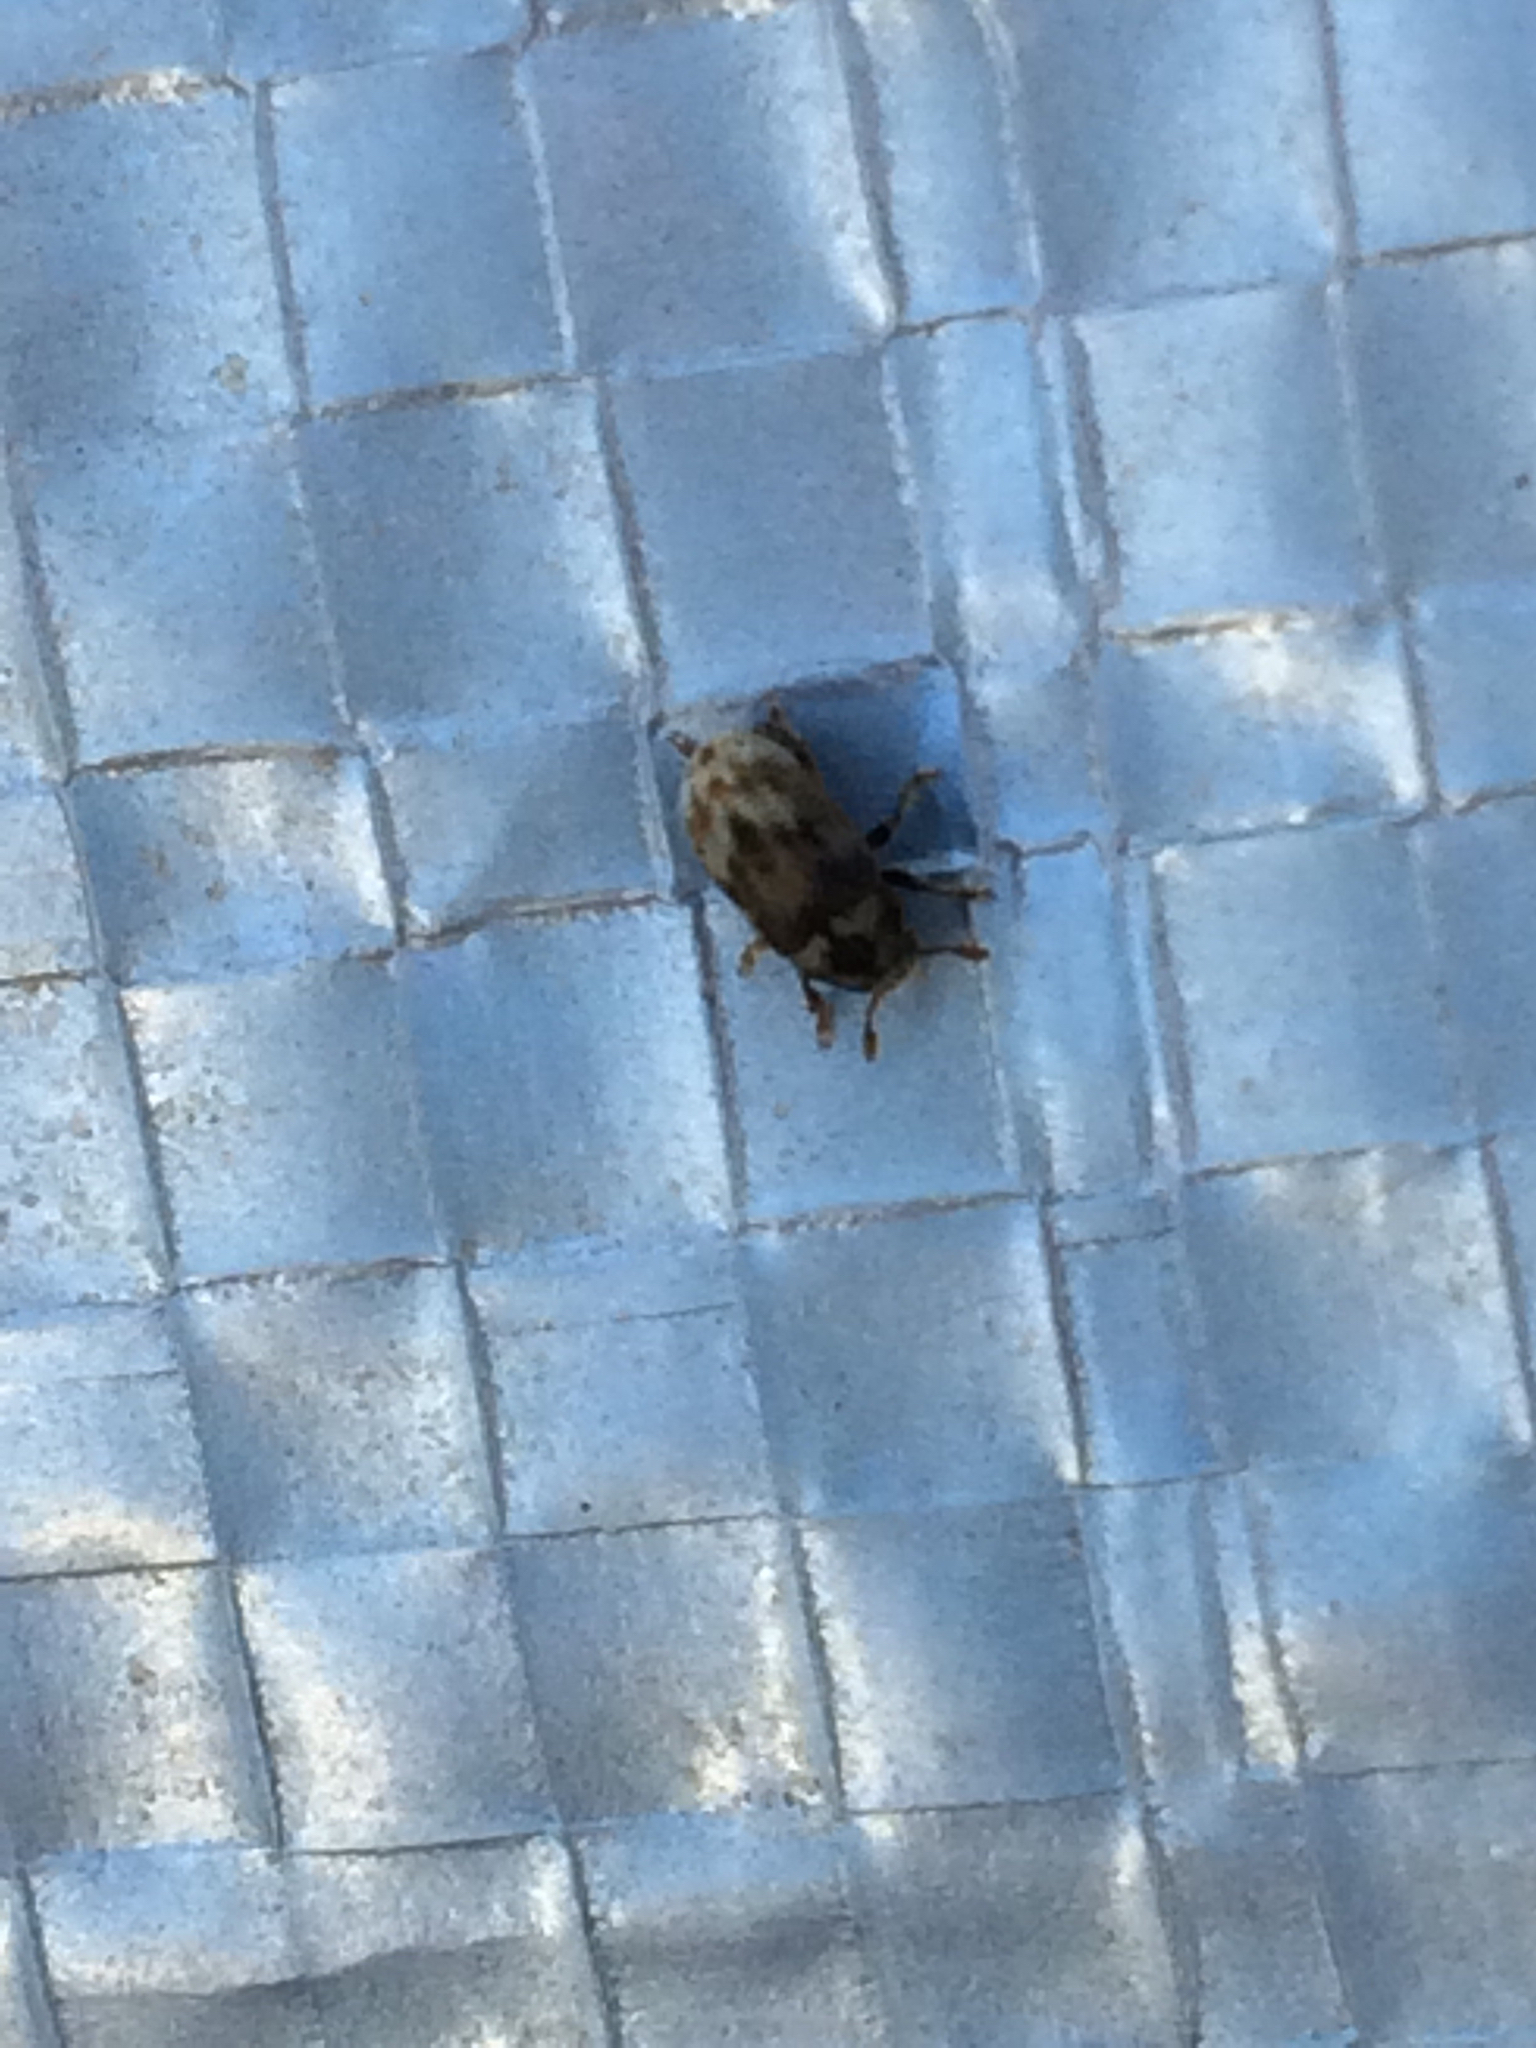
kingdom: Animalia
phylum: Arthropoda
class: Insecta
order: Coleoptera
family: Curculionidae
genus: Hylesinus
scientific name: Hylesinus aculeatus
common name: Easter-ash bark beetle
